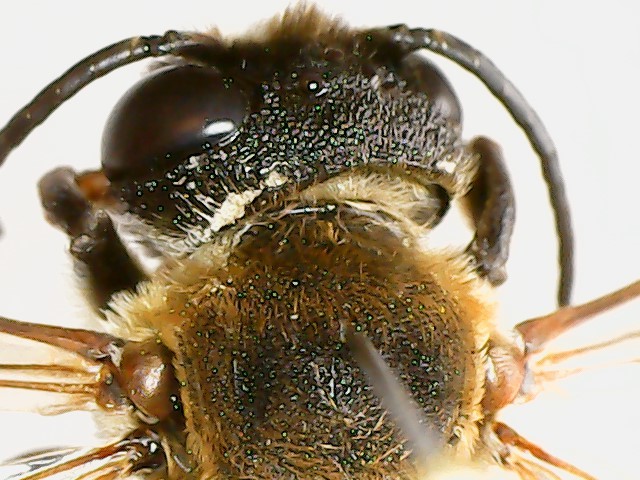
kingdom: Animalia
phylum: Arthropoda
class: Insecta
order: Hymenoptera
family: Megachilidae
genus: Megachile
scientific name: Megachile sculpturalis
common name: Sculptured resin bee
